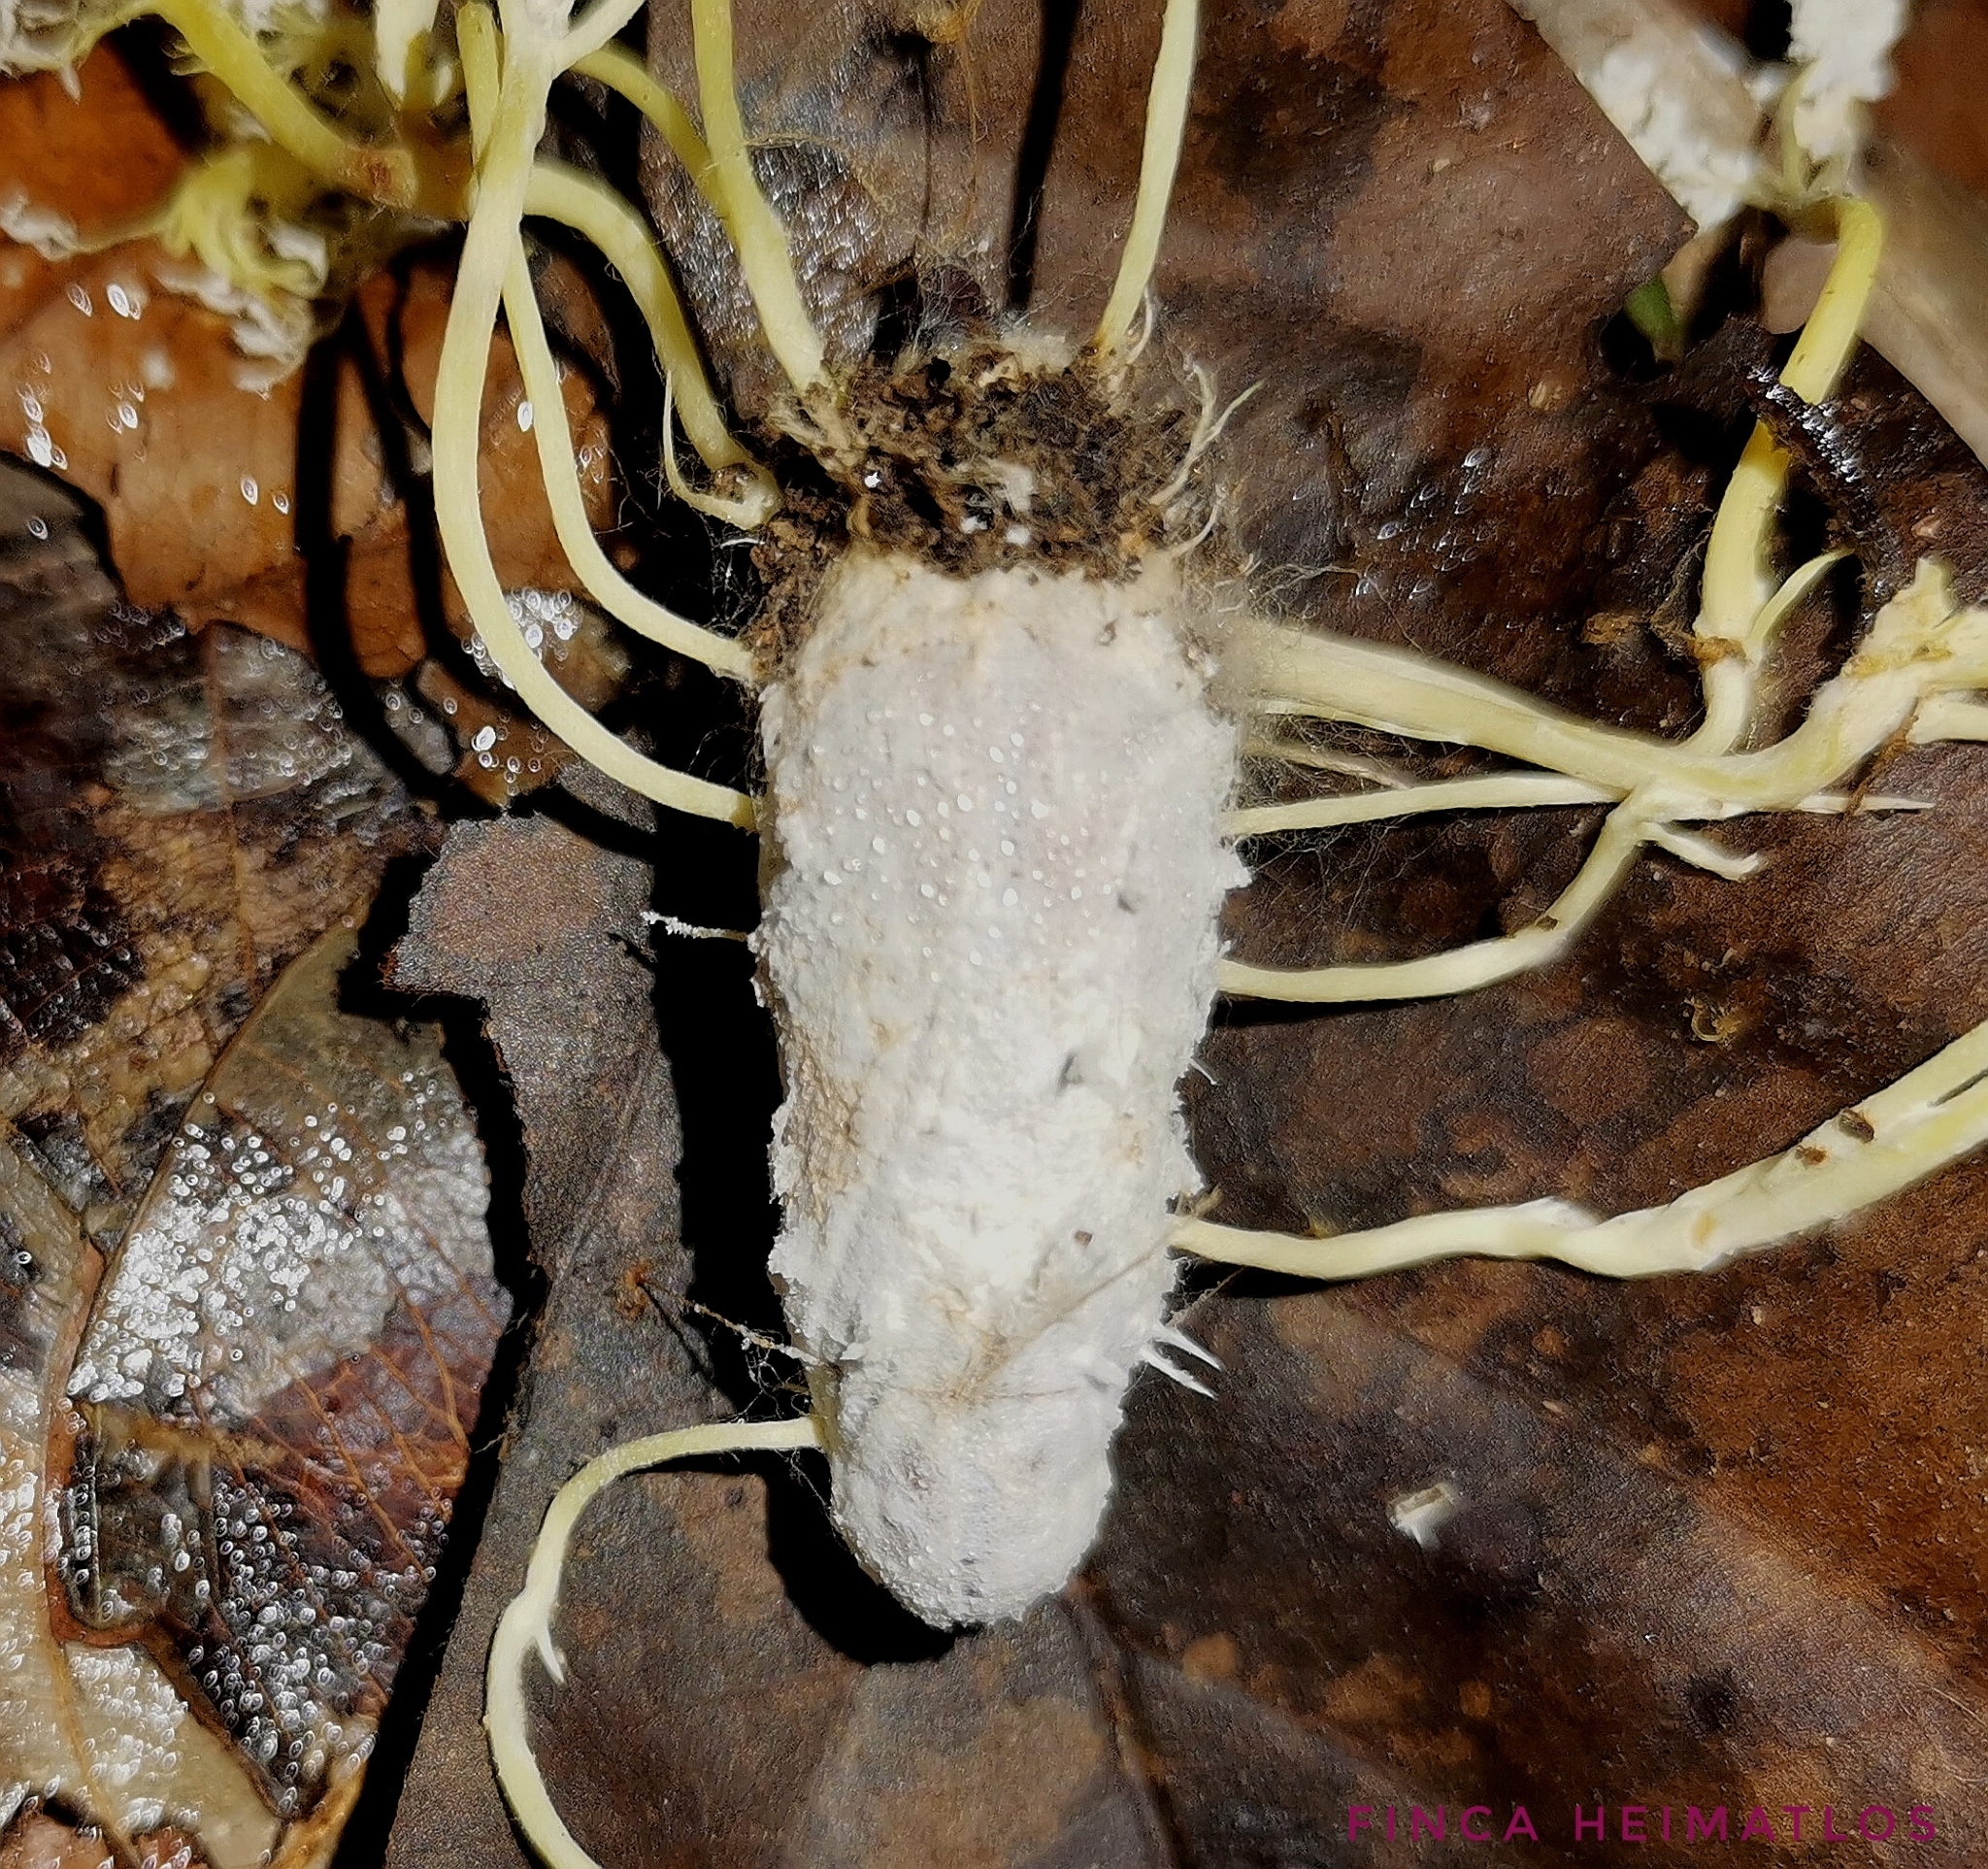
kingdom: Fungi
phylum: Ascomycota
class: Sordariomycetes
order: Hypocreales
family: Cordycipitaceae
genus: Cordyceps
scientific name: Cordyceps tenuipes
